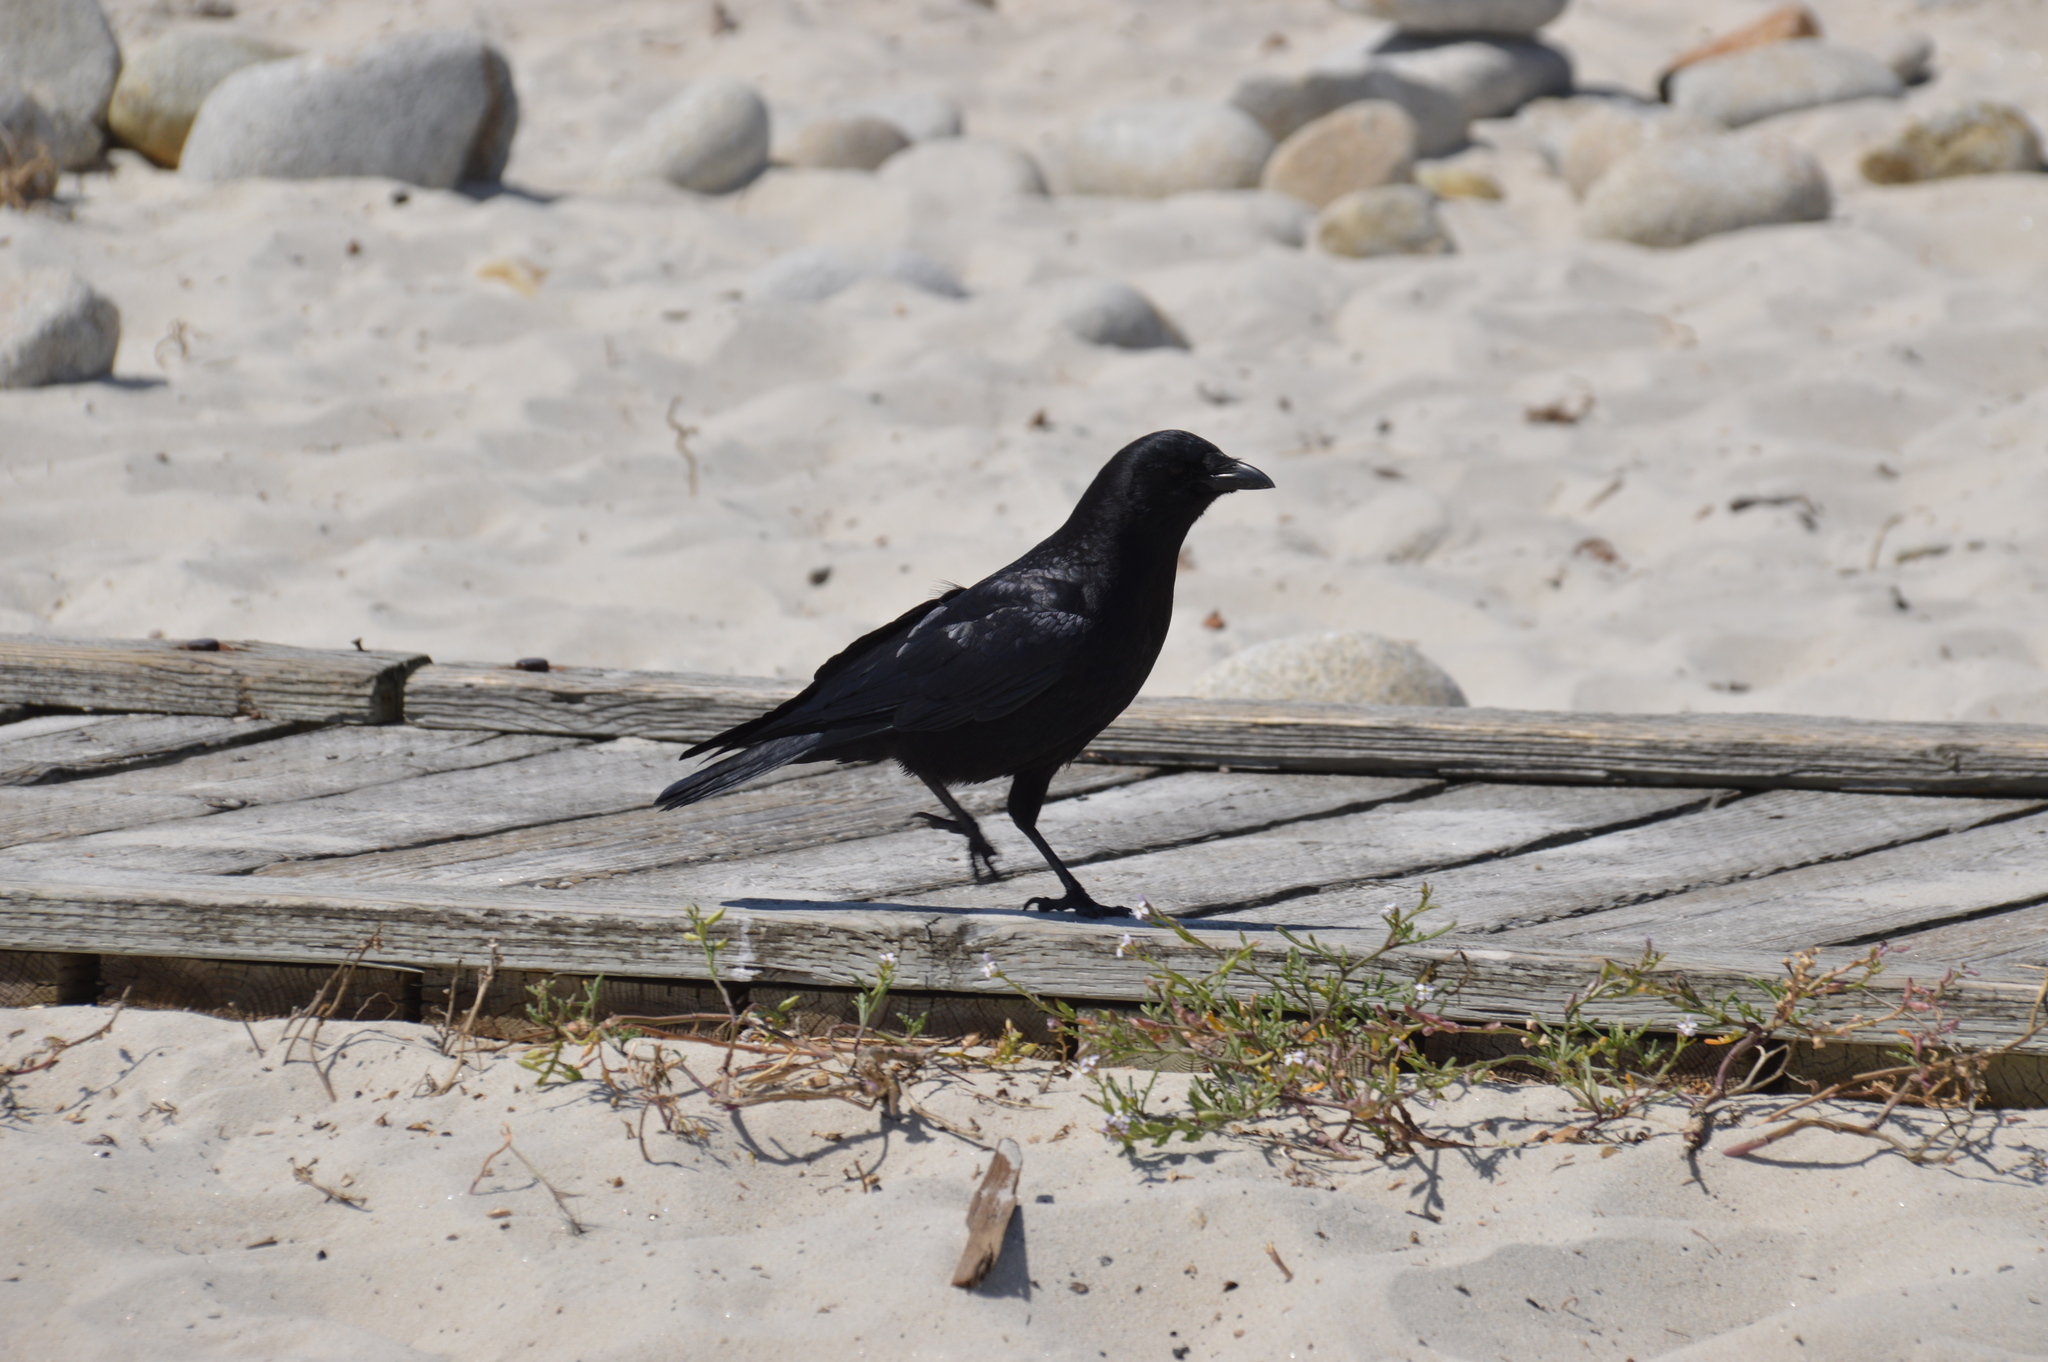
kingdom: Animalia
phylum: Chordata
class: Aves
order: Passeriformes
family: Corvidae
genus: Corvus
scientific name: Corvus brachyrhynchos
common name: American crow
